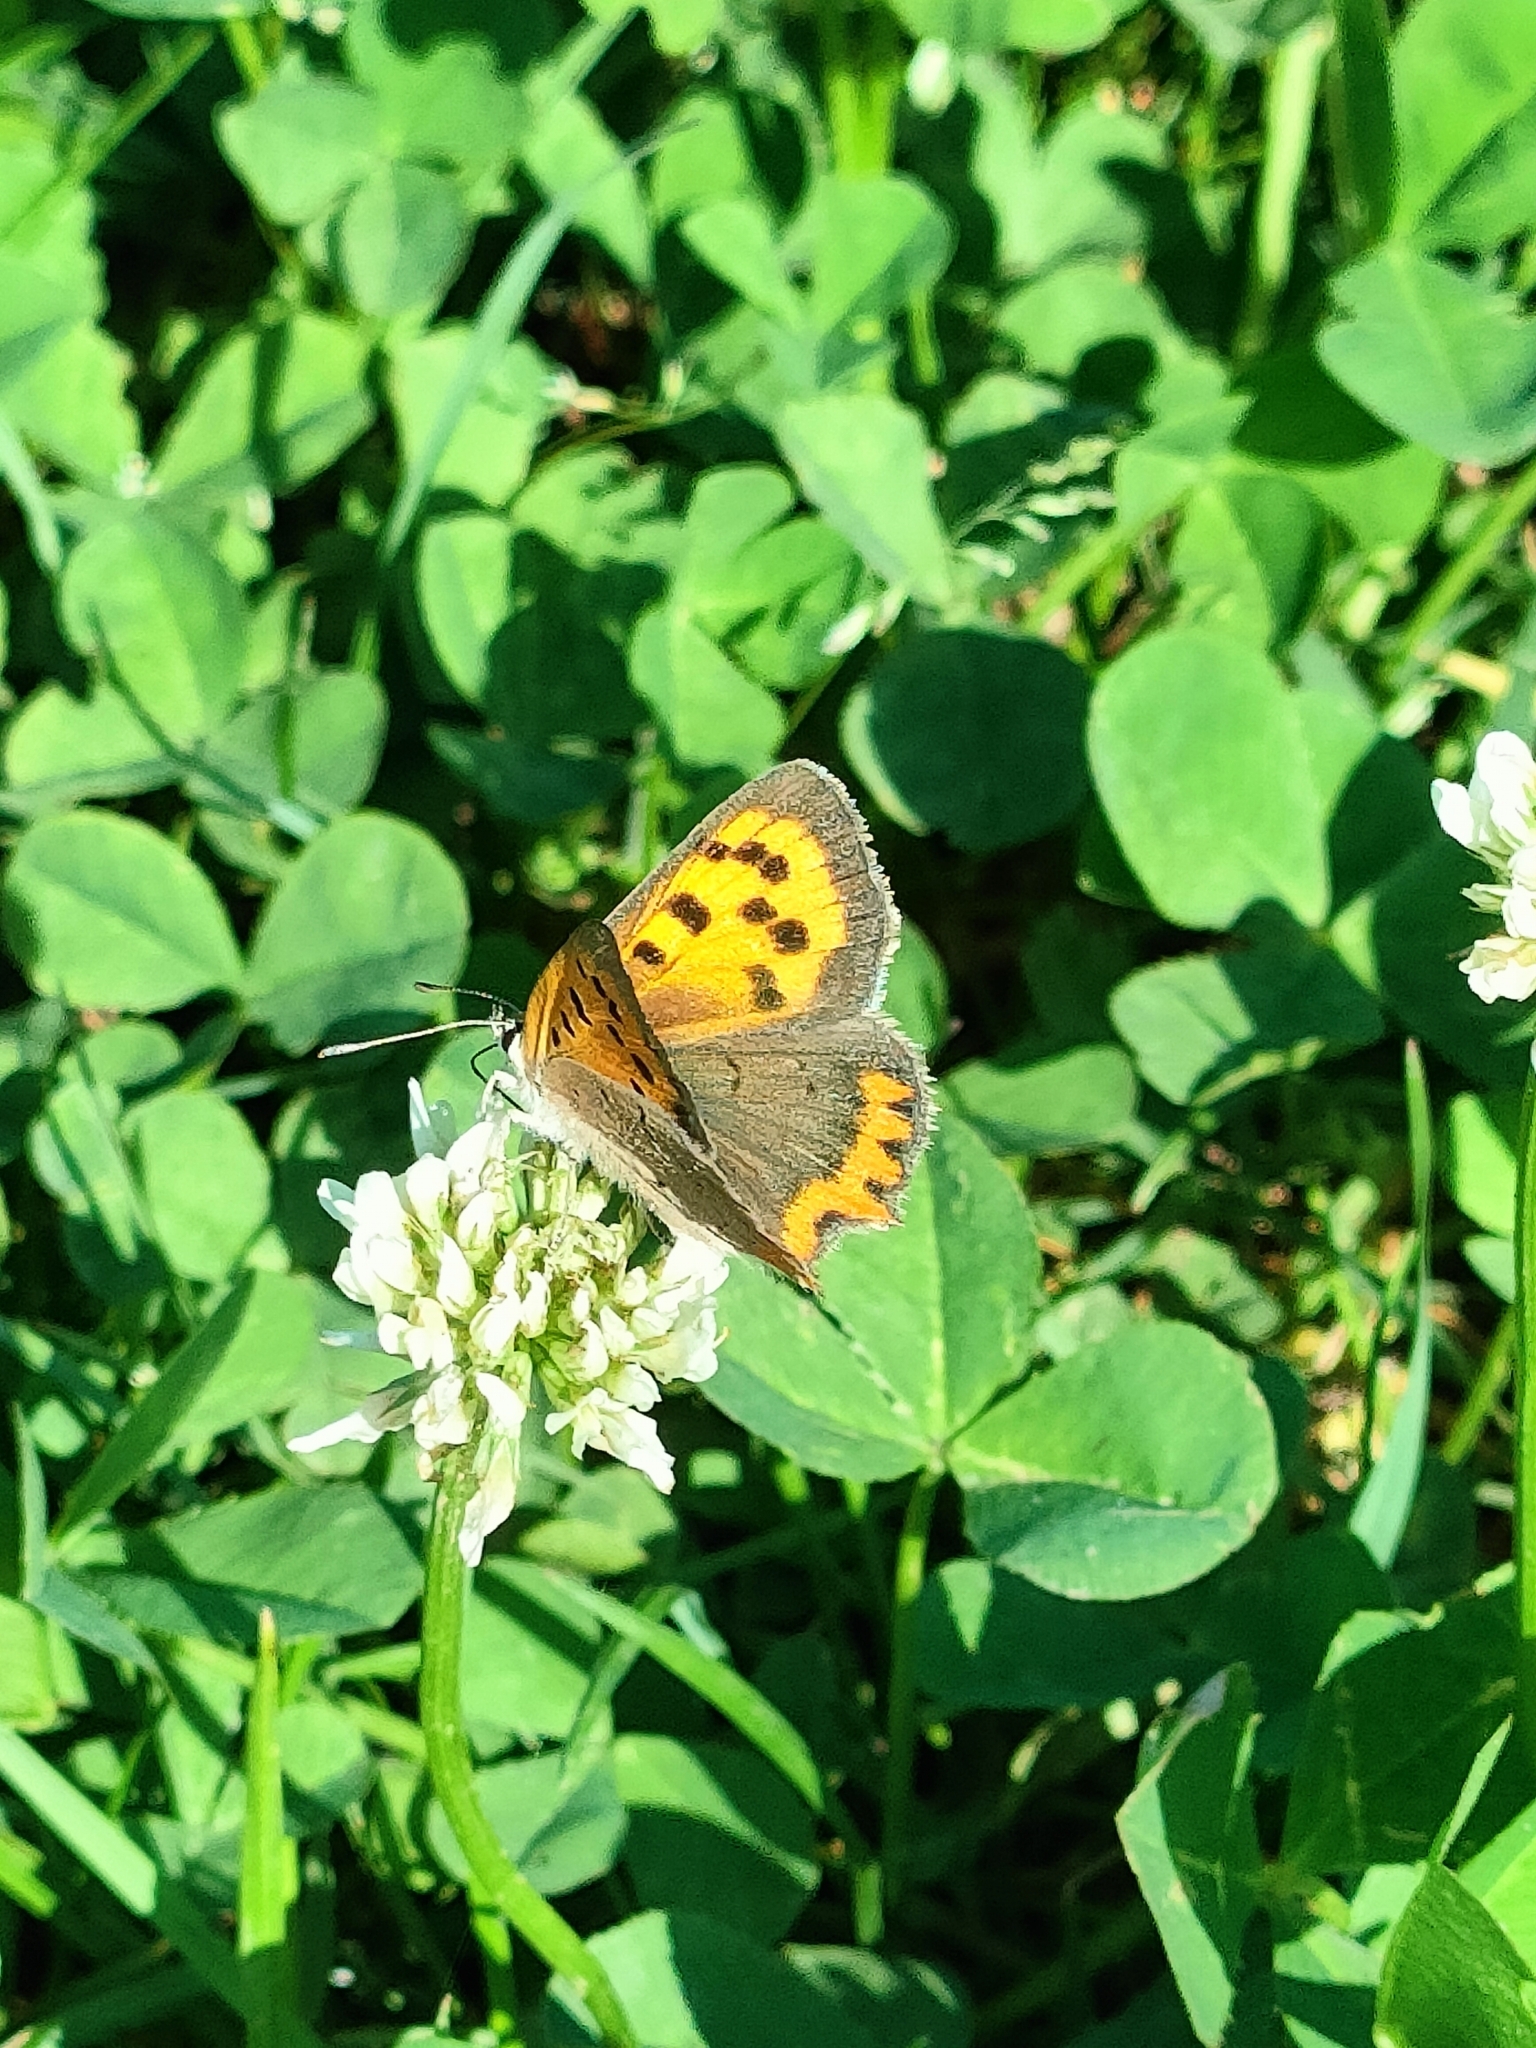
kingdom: Animalia
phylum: Arthropoda
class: Insecta
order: Lepidoptera
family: Lycaenidae
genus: Lycaena
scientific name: Lycaena phlaeas
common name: Small copper
